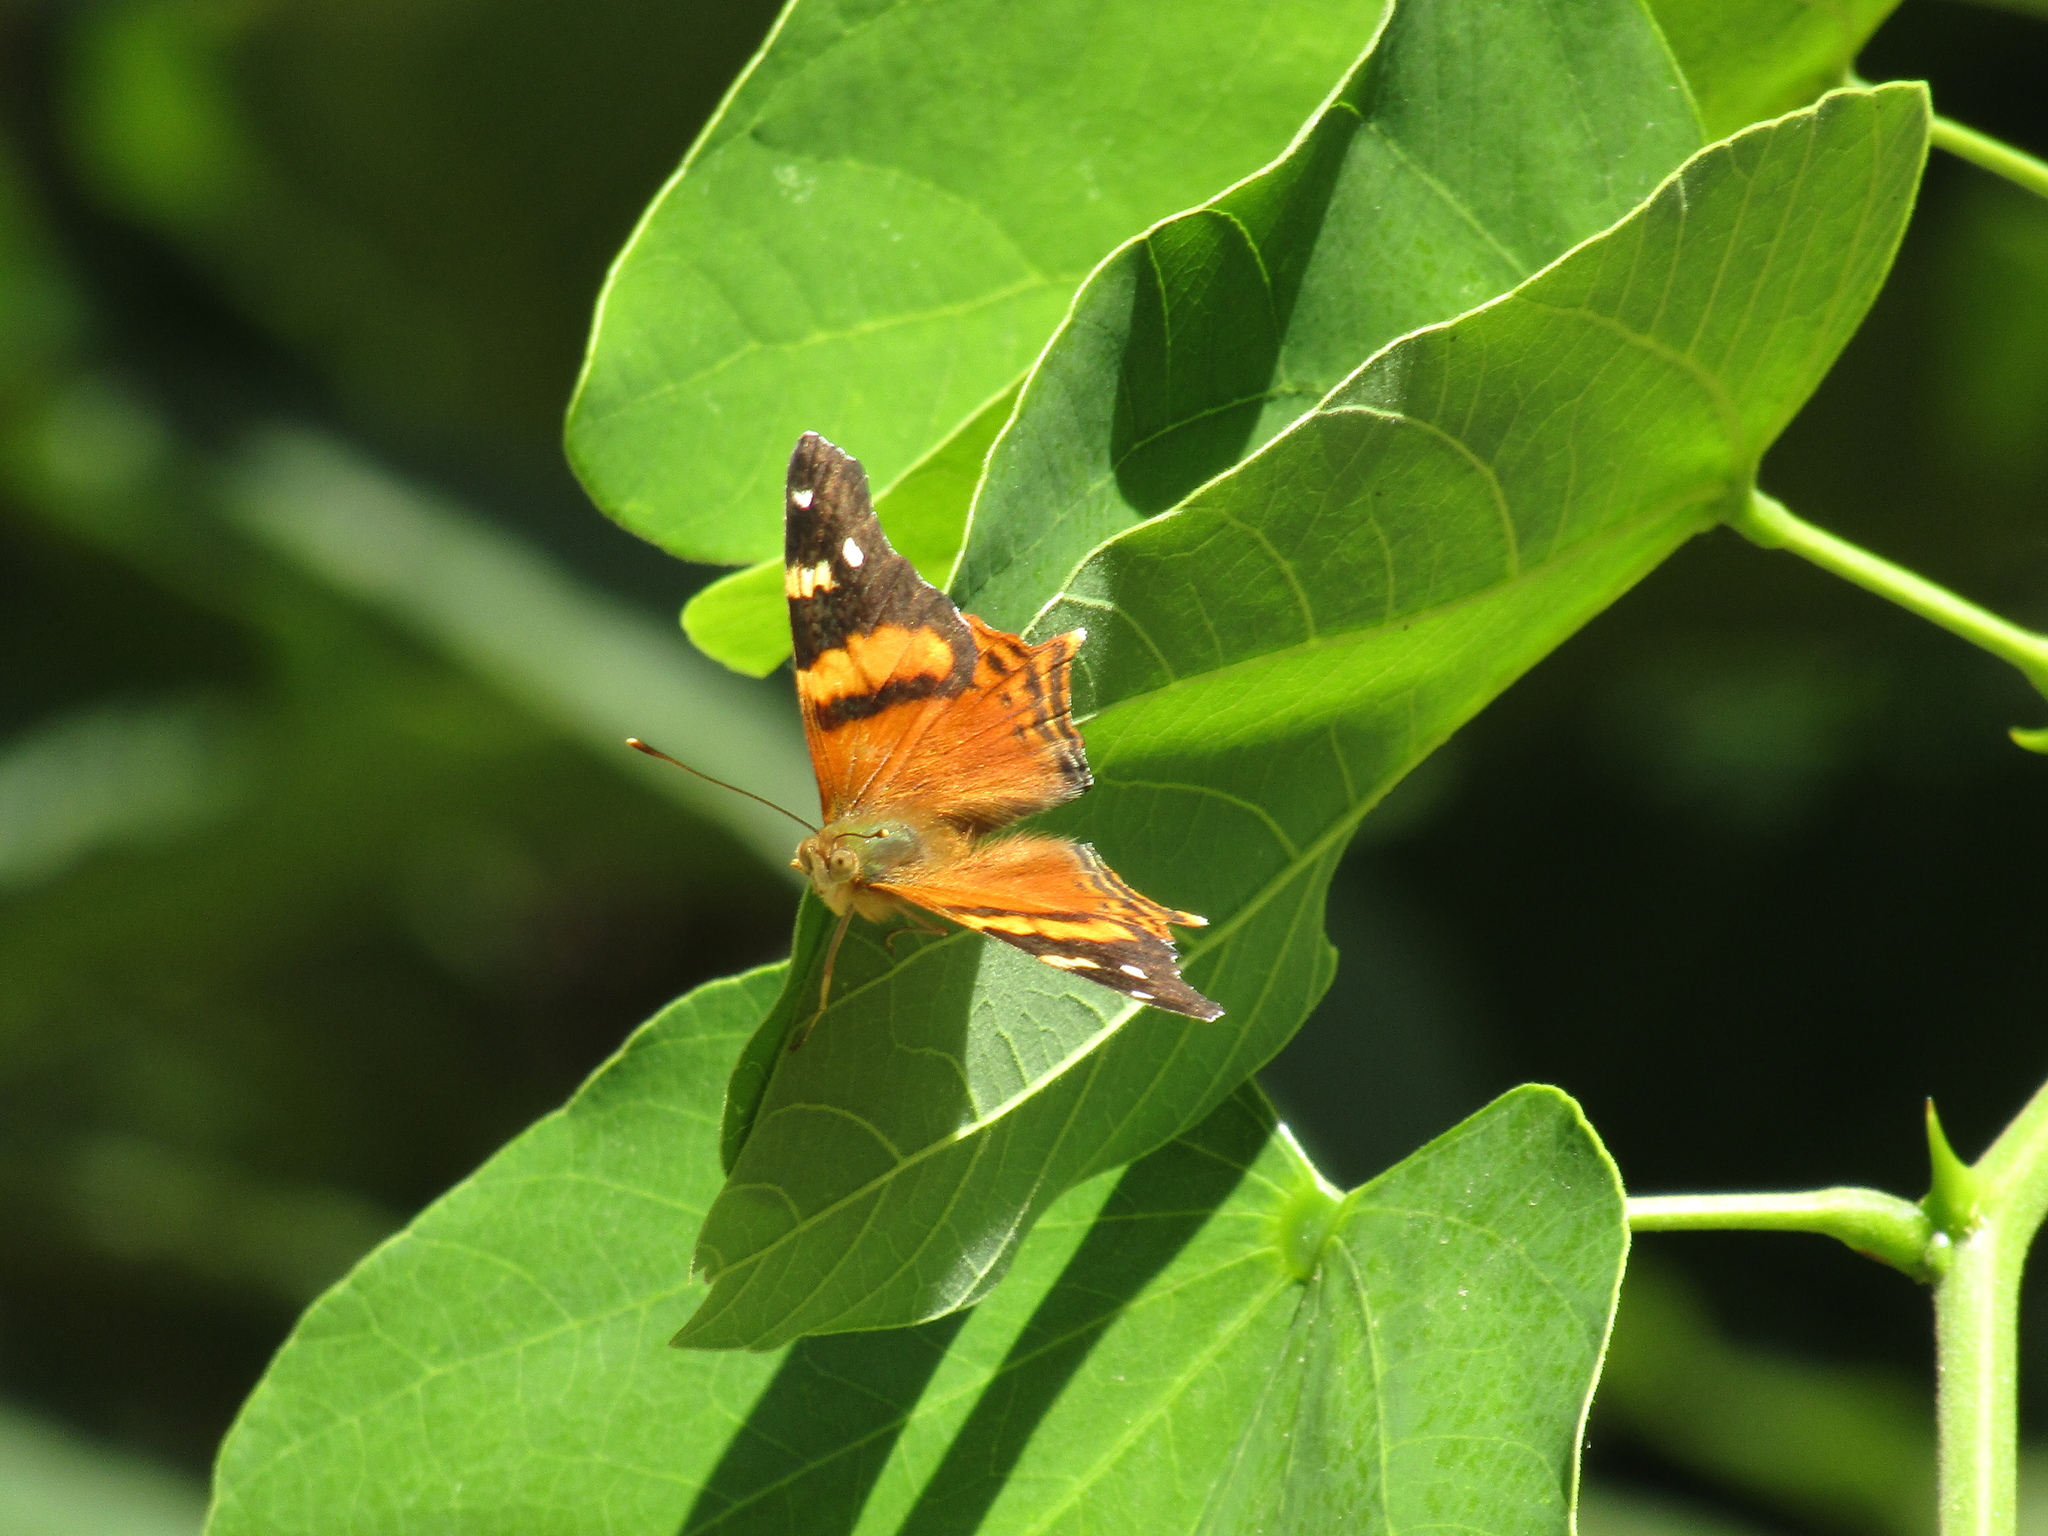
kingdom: Animalia
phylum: Arthropoda
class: Insecta
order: Lepidoptera
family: Nymphalidae
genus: Hypanartia
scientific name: Hypanartia bella
